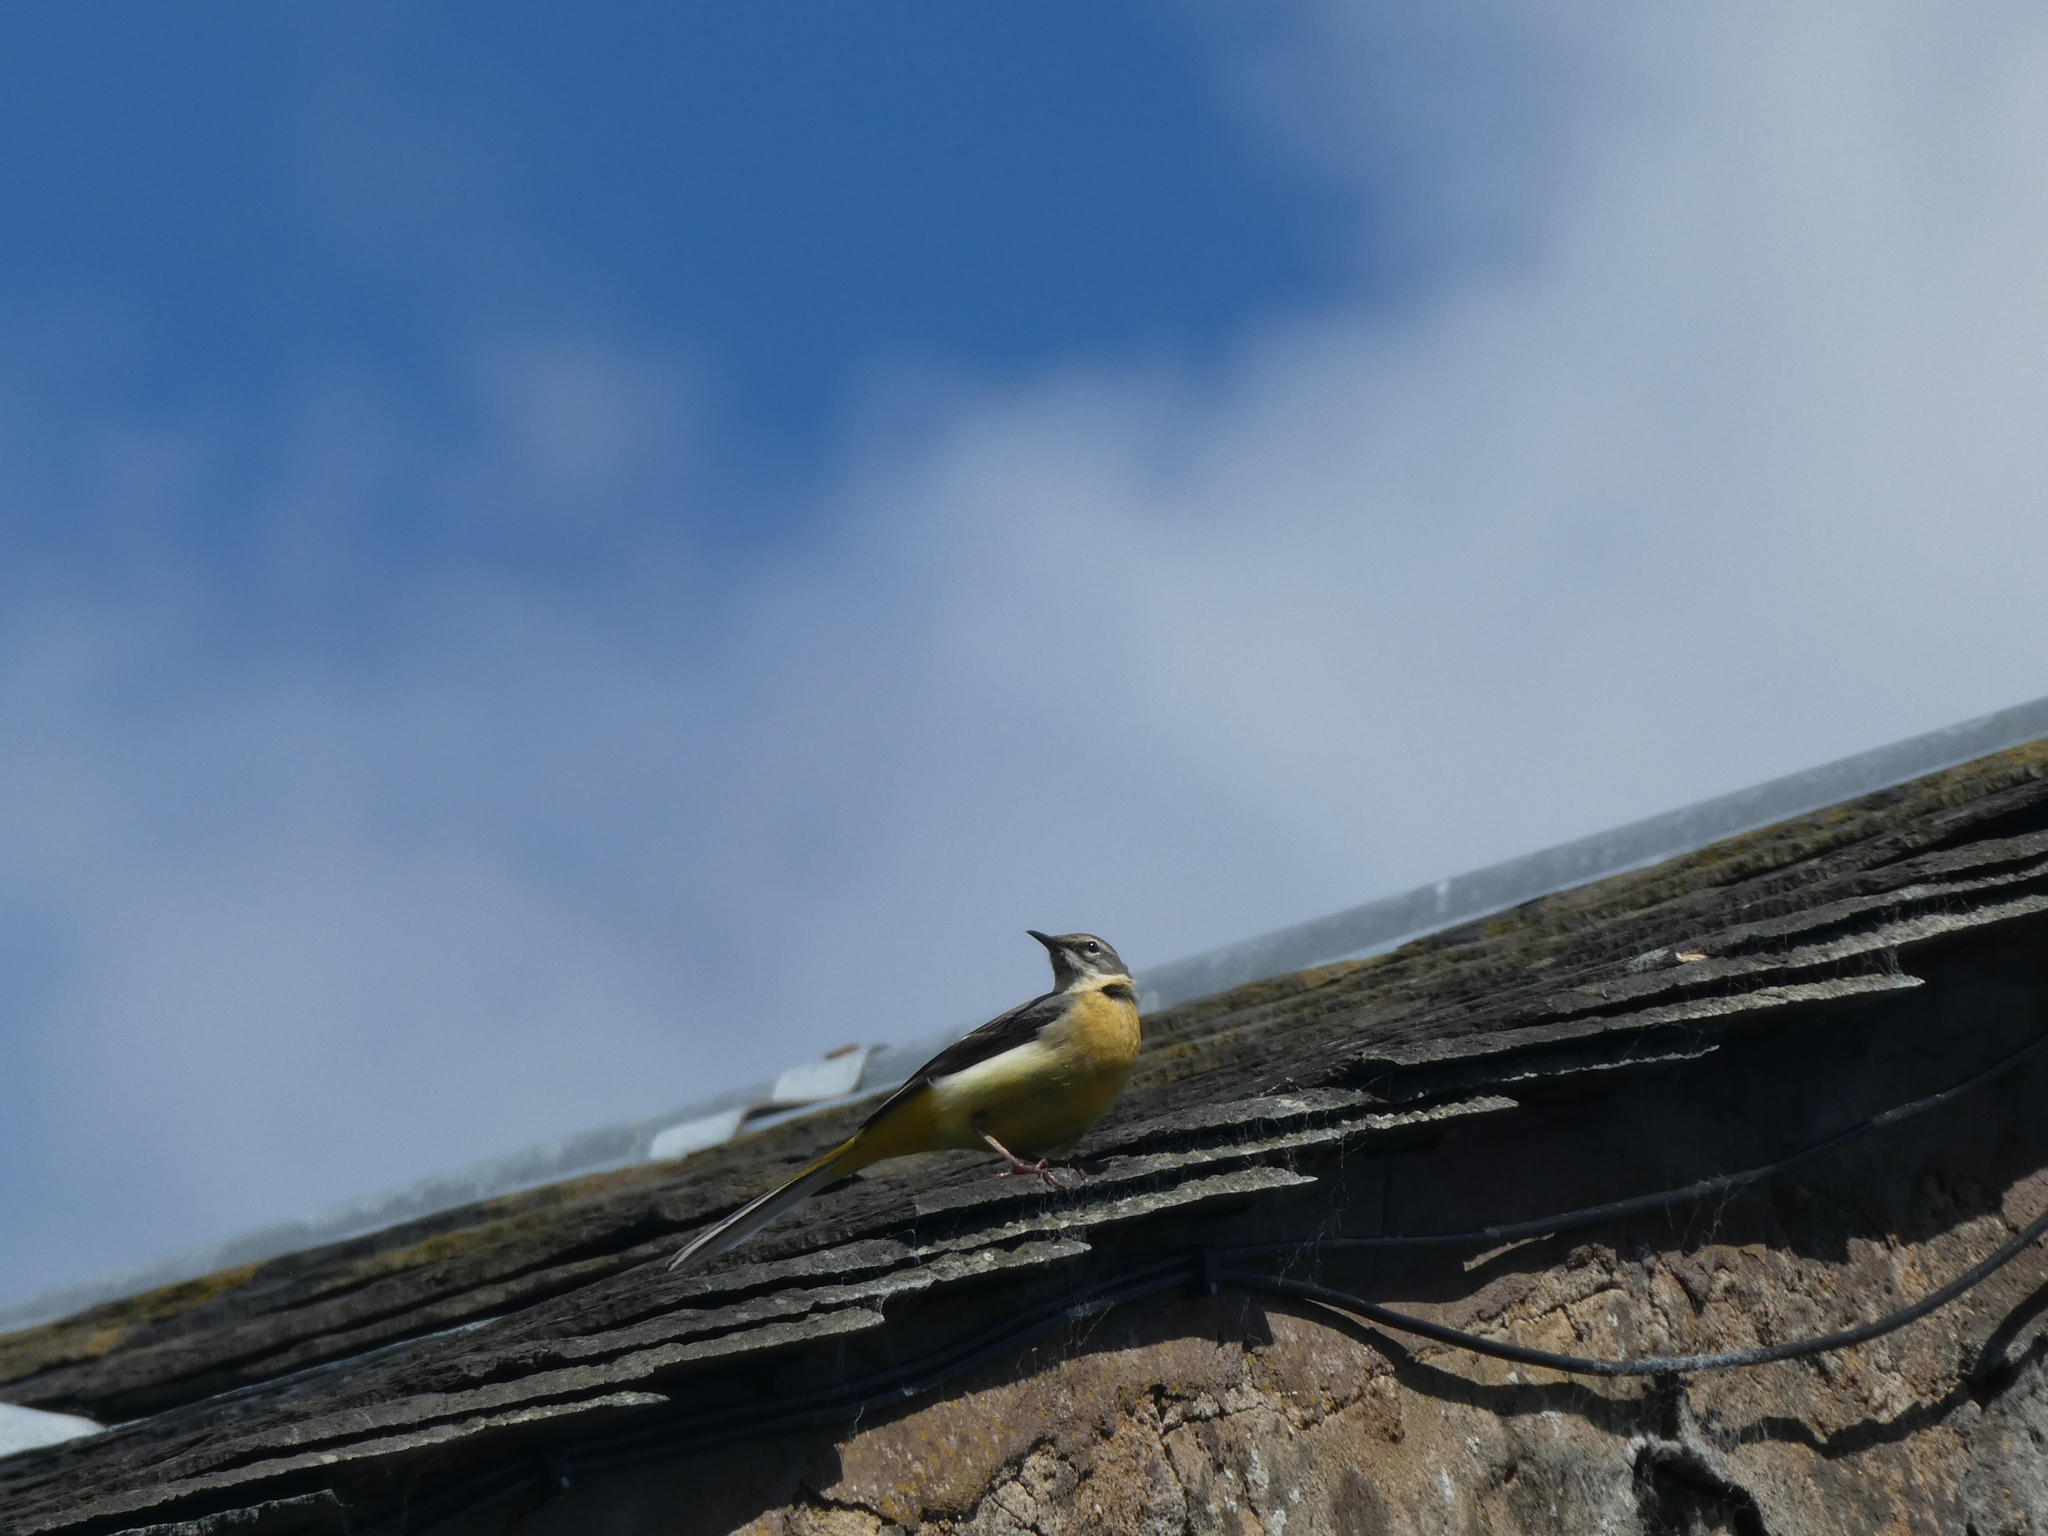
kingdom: Animalia
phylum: Chordata
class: Aves
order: Passeriformes
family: Motacillidae
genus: Motacilla
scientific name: Motacilla cinerea
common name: Grey wagtail
